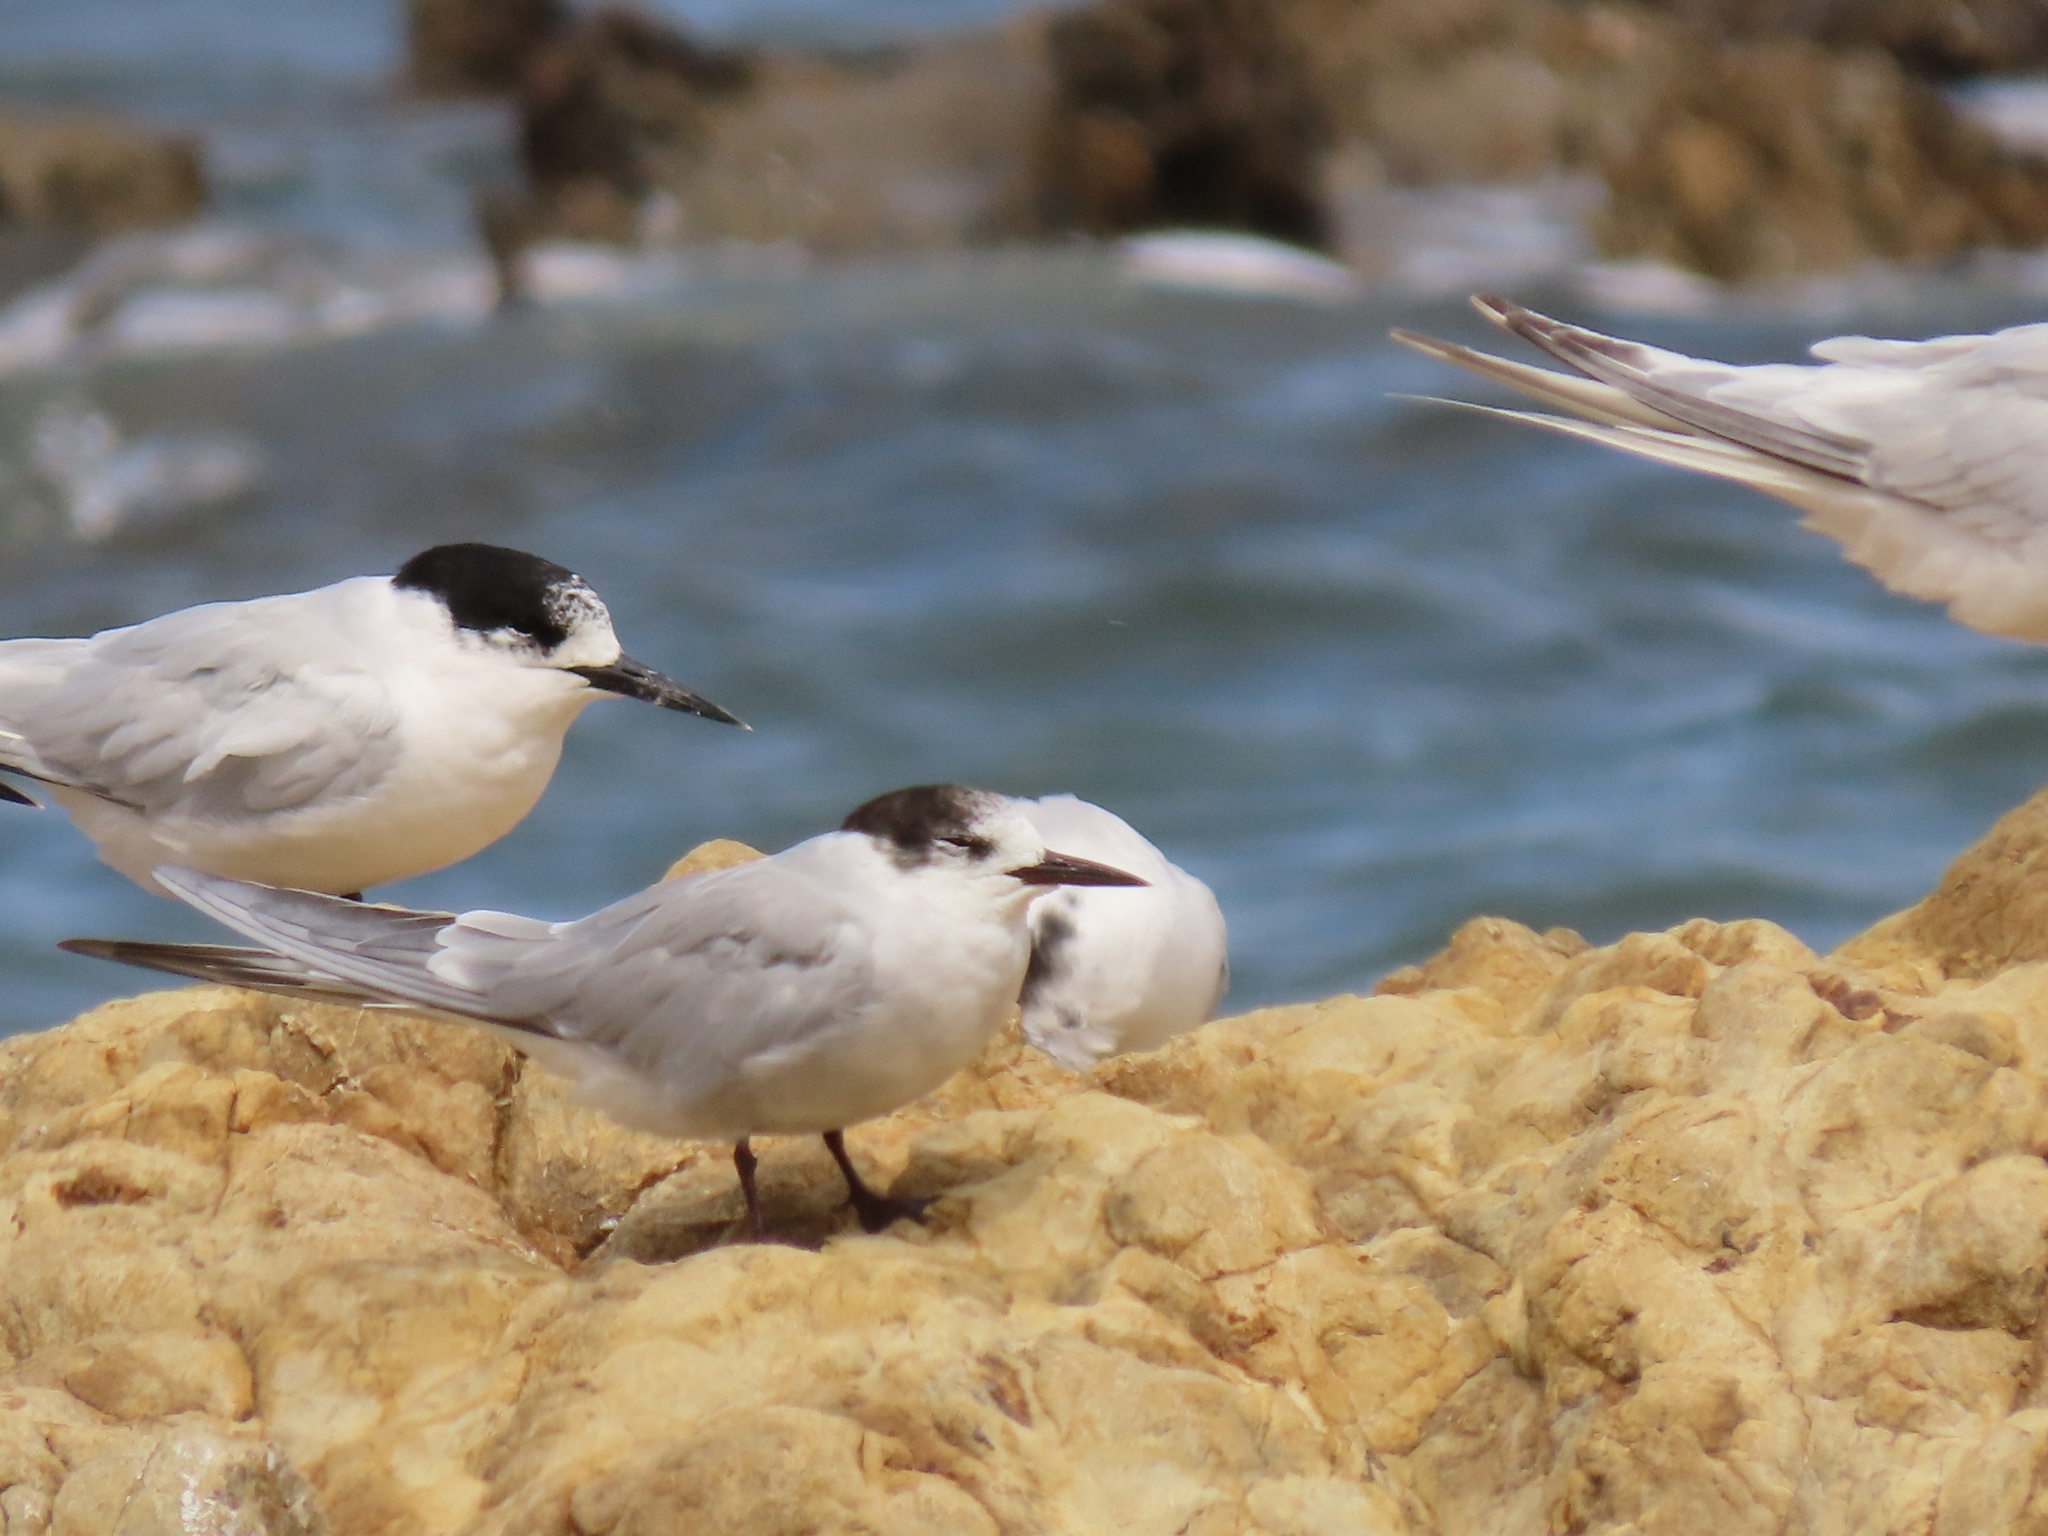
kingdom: Animalia
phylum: Chordata
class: Aves
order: Charadriiformes
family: Laridae
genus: Sterna
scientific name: Sterna hirundo
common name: Common tern
